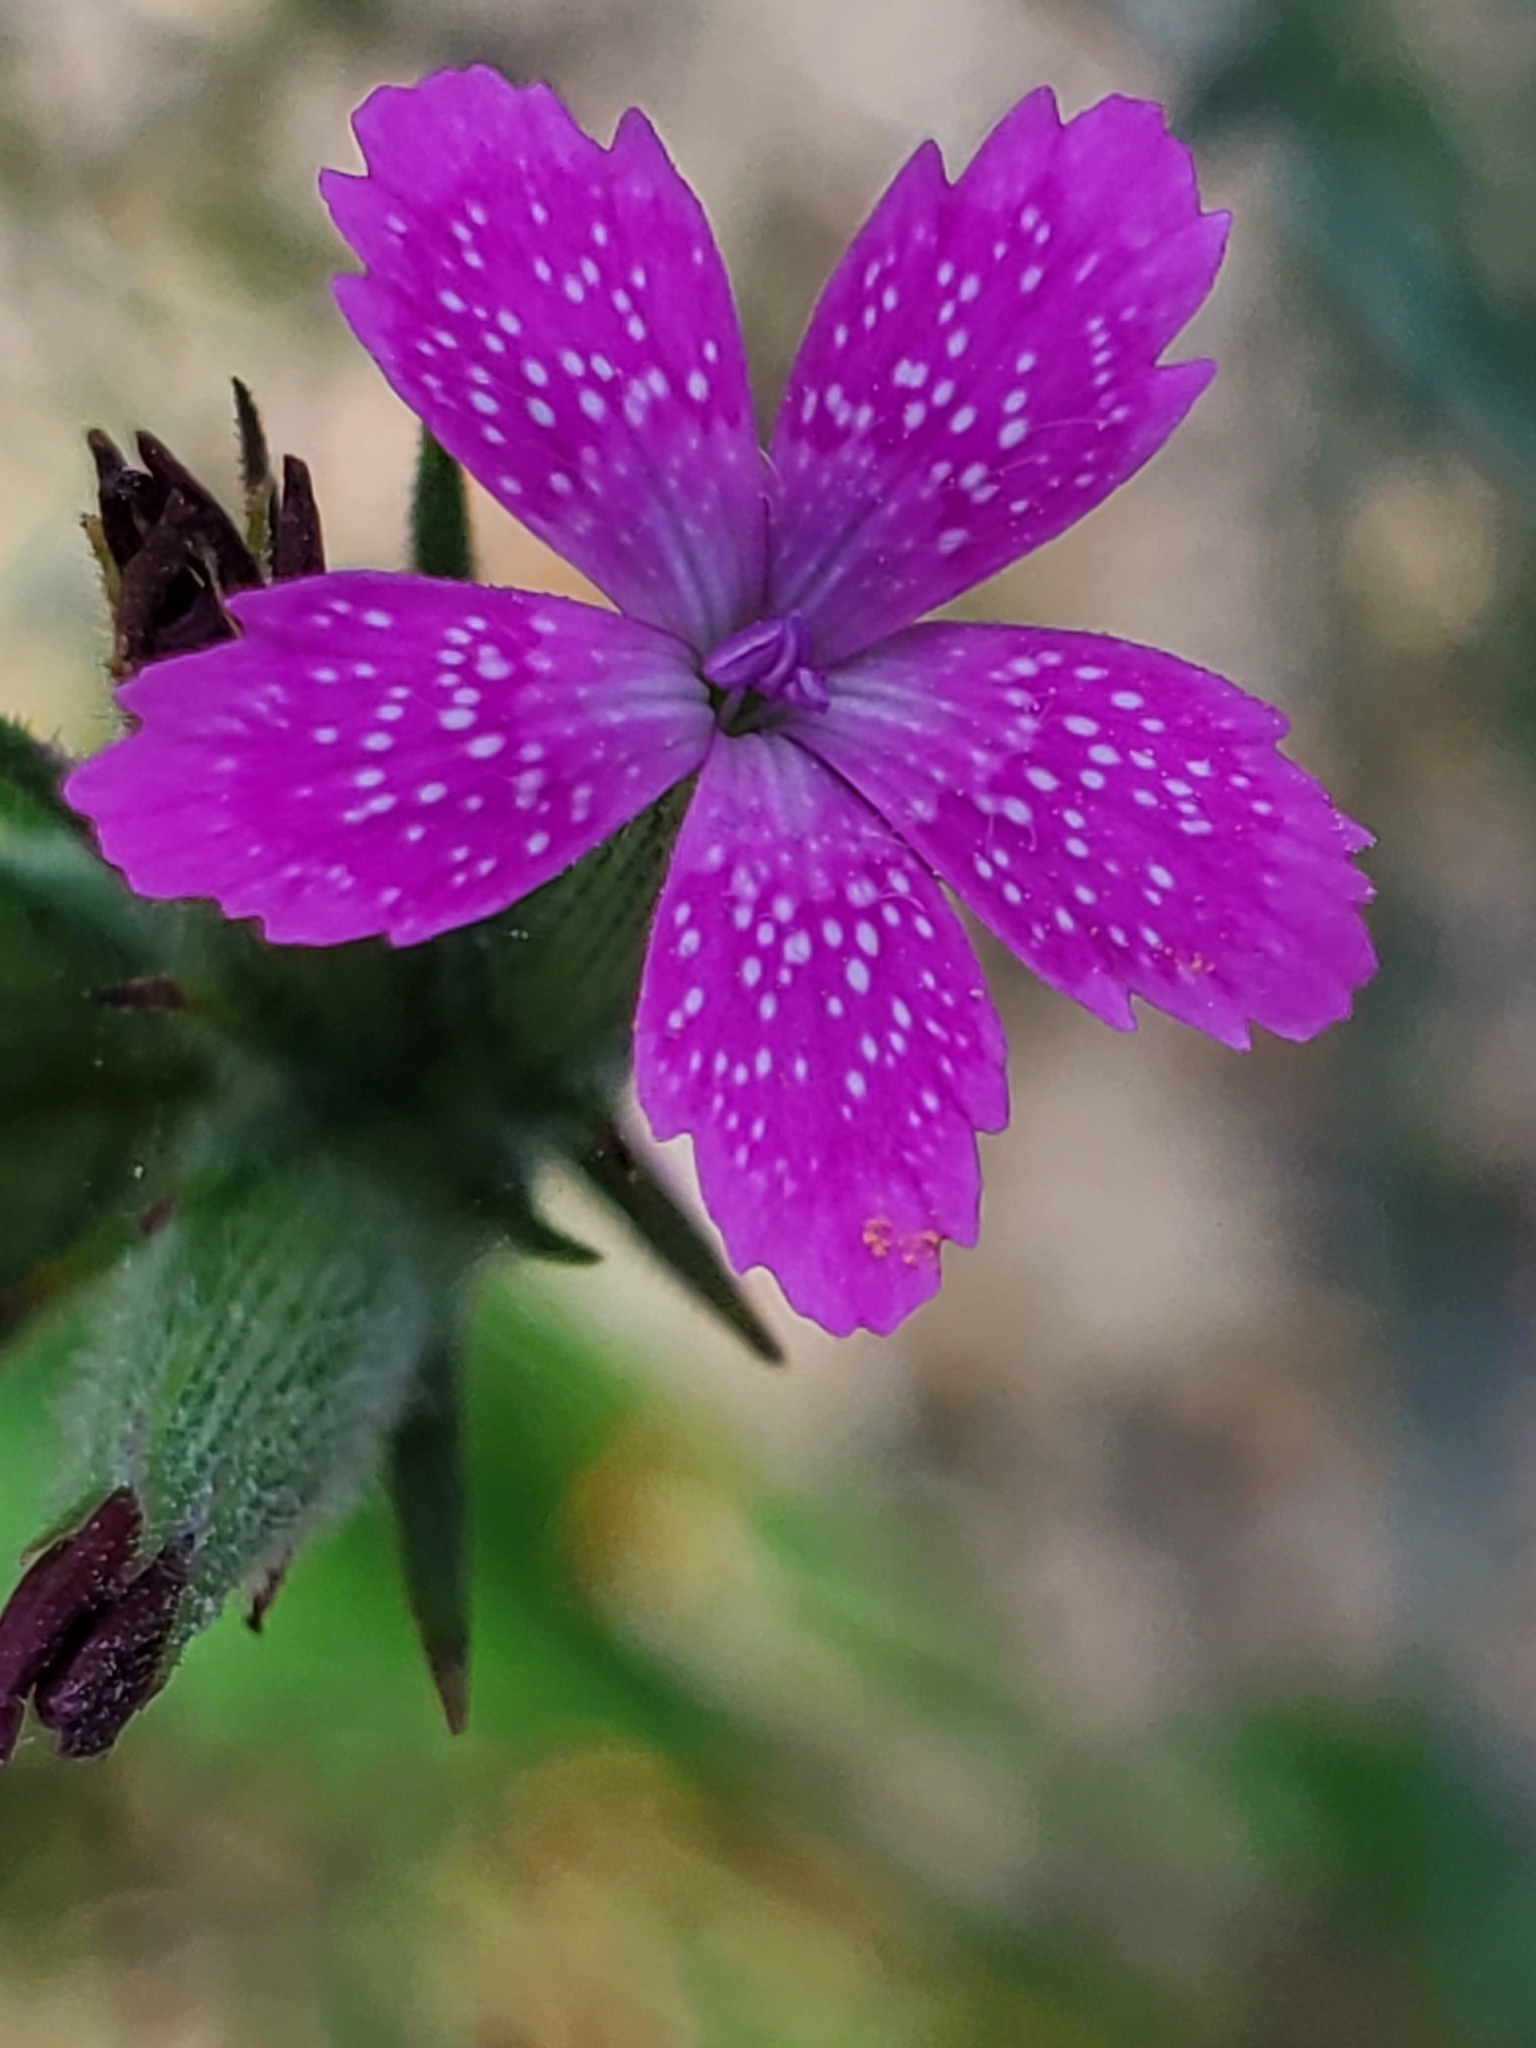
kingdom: Plantae
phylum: Tracheophyta
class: Magnoliopsida
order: Caryophyllales
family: Caryophyllaceae
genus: Dianthus
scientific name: Dianthus armeria
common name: Deptford pink
